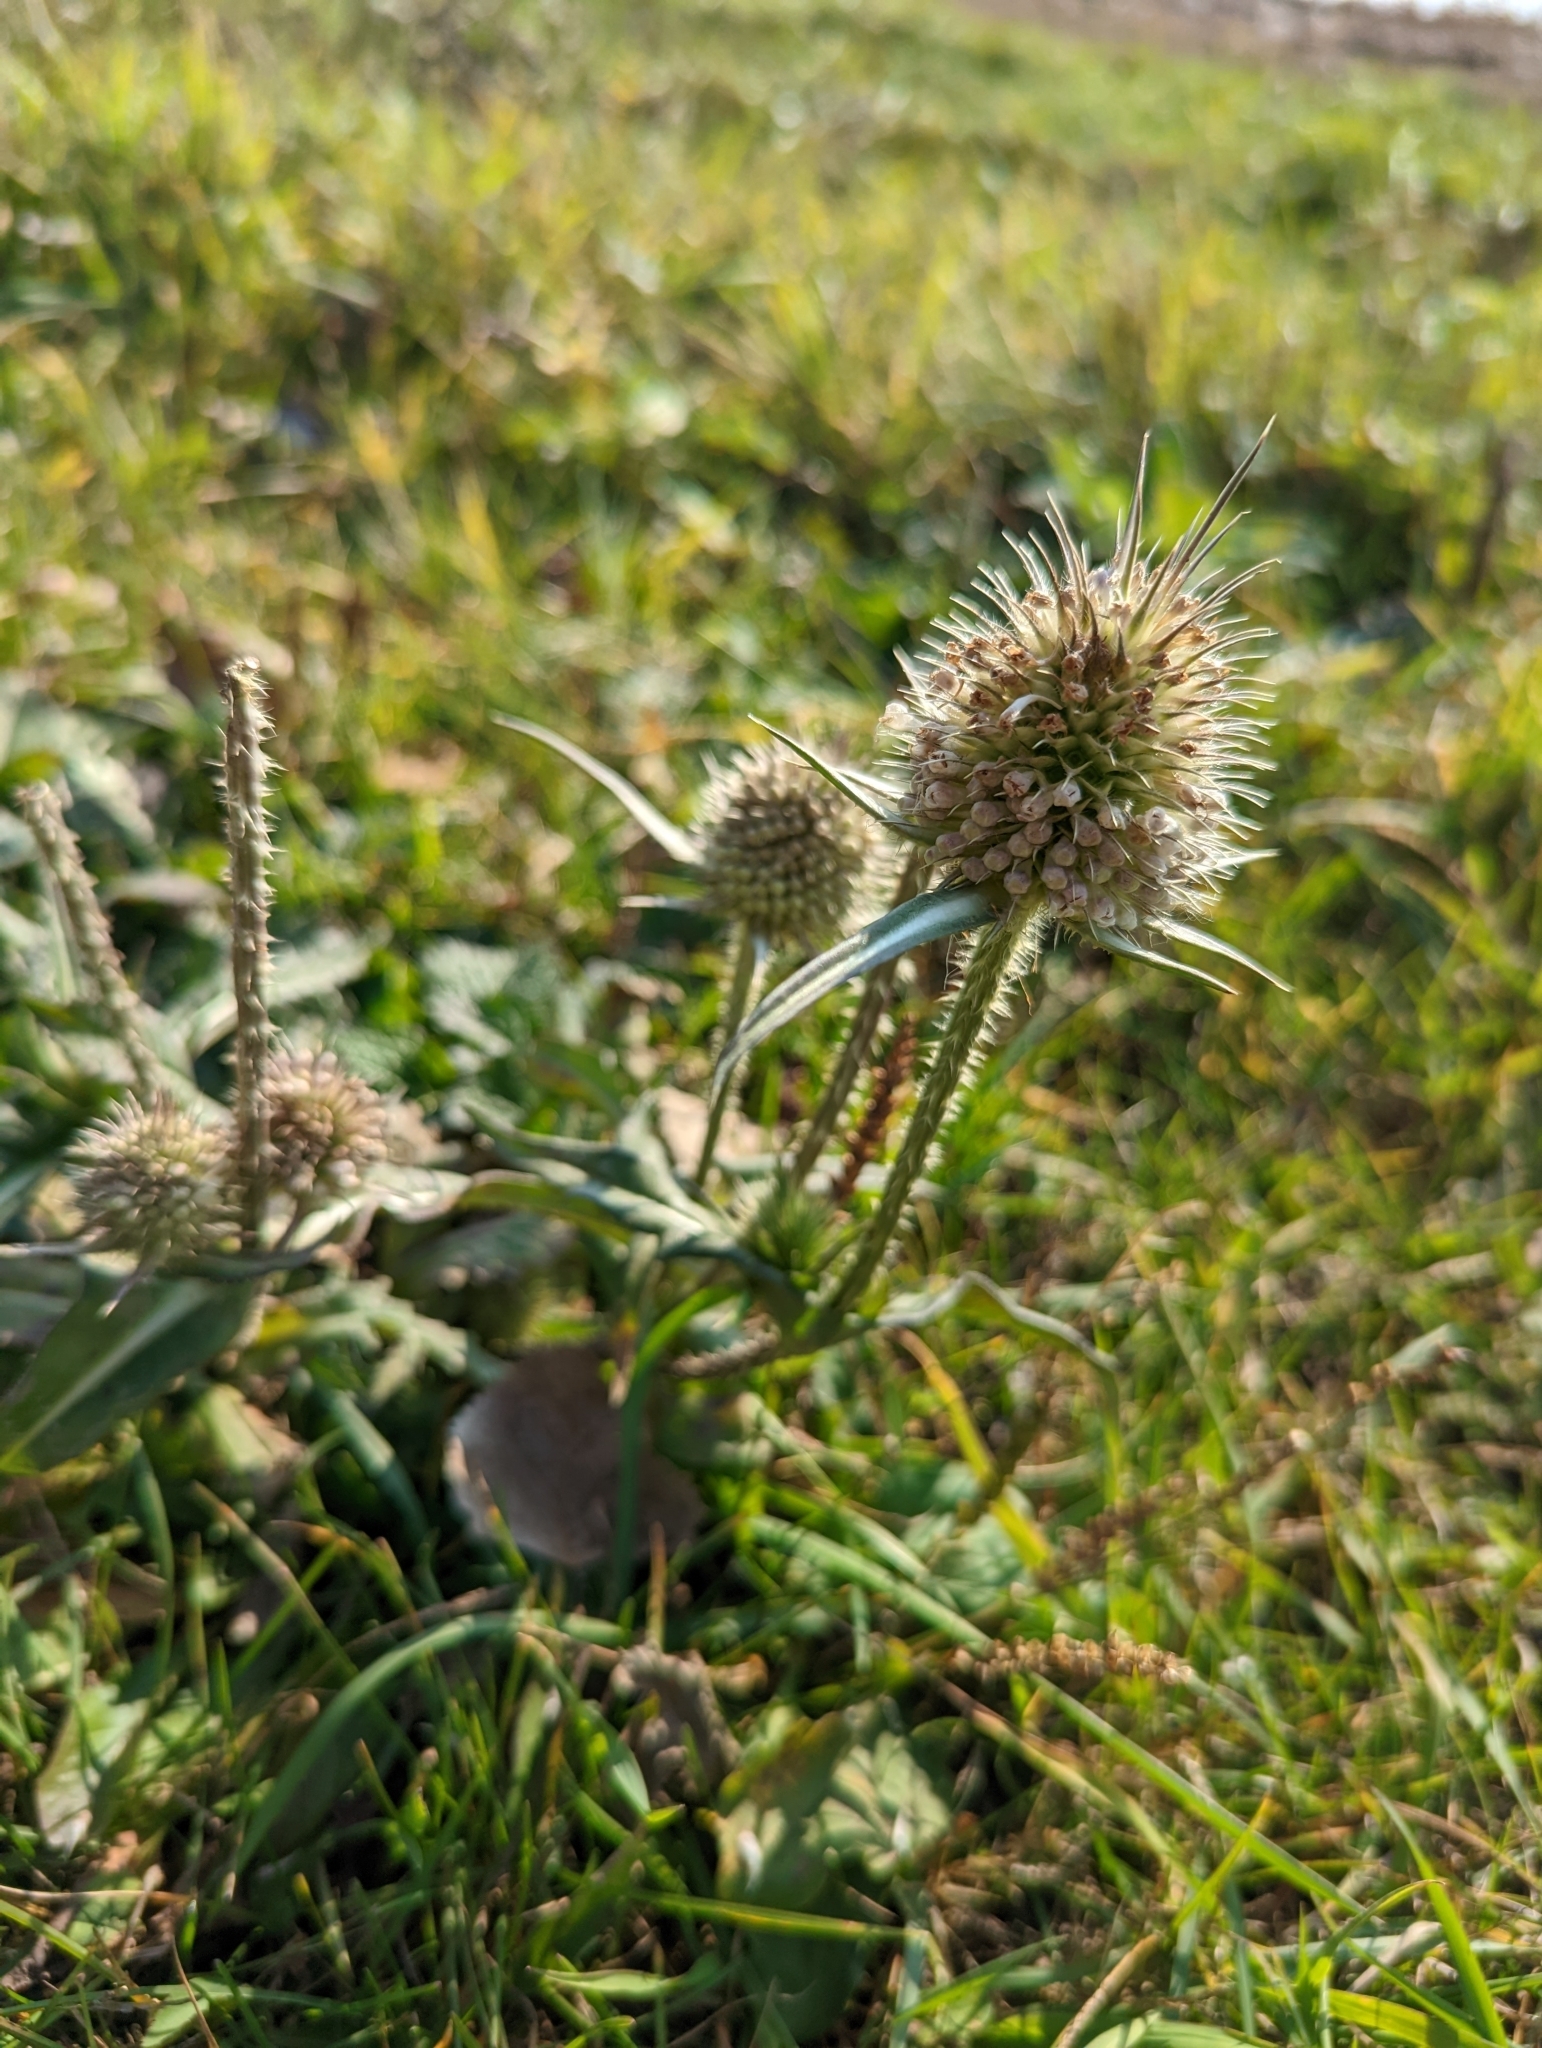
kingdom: Plantae
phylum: Tracheophyta
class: Magnoliopsida
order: Dipsacales
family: Caprifoliaceae
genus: Dipsacus
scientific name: Dipsacus laciniatus
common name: Cut-leaved teasel
